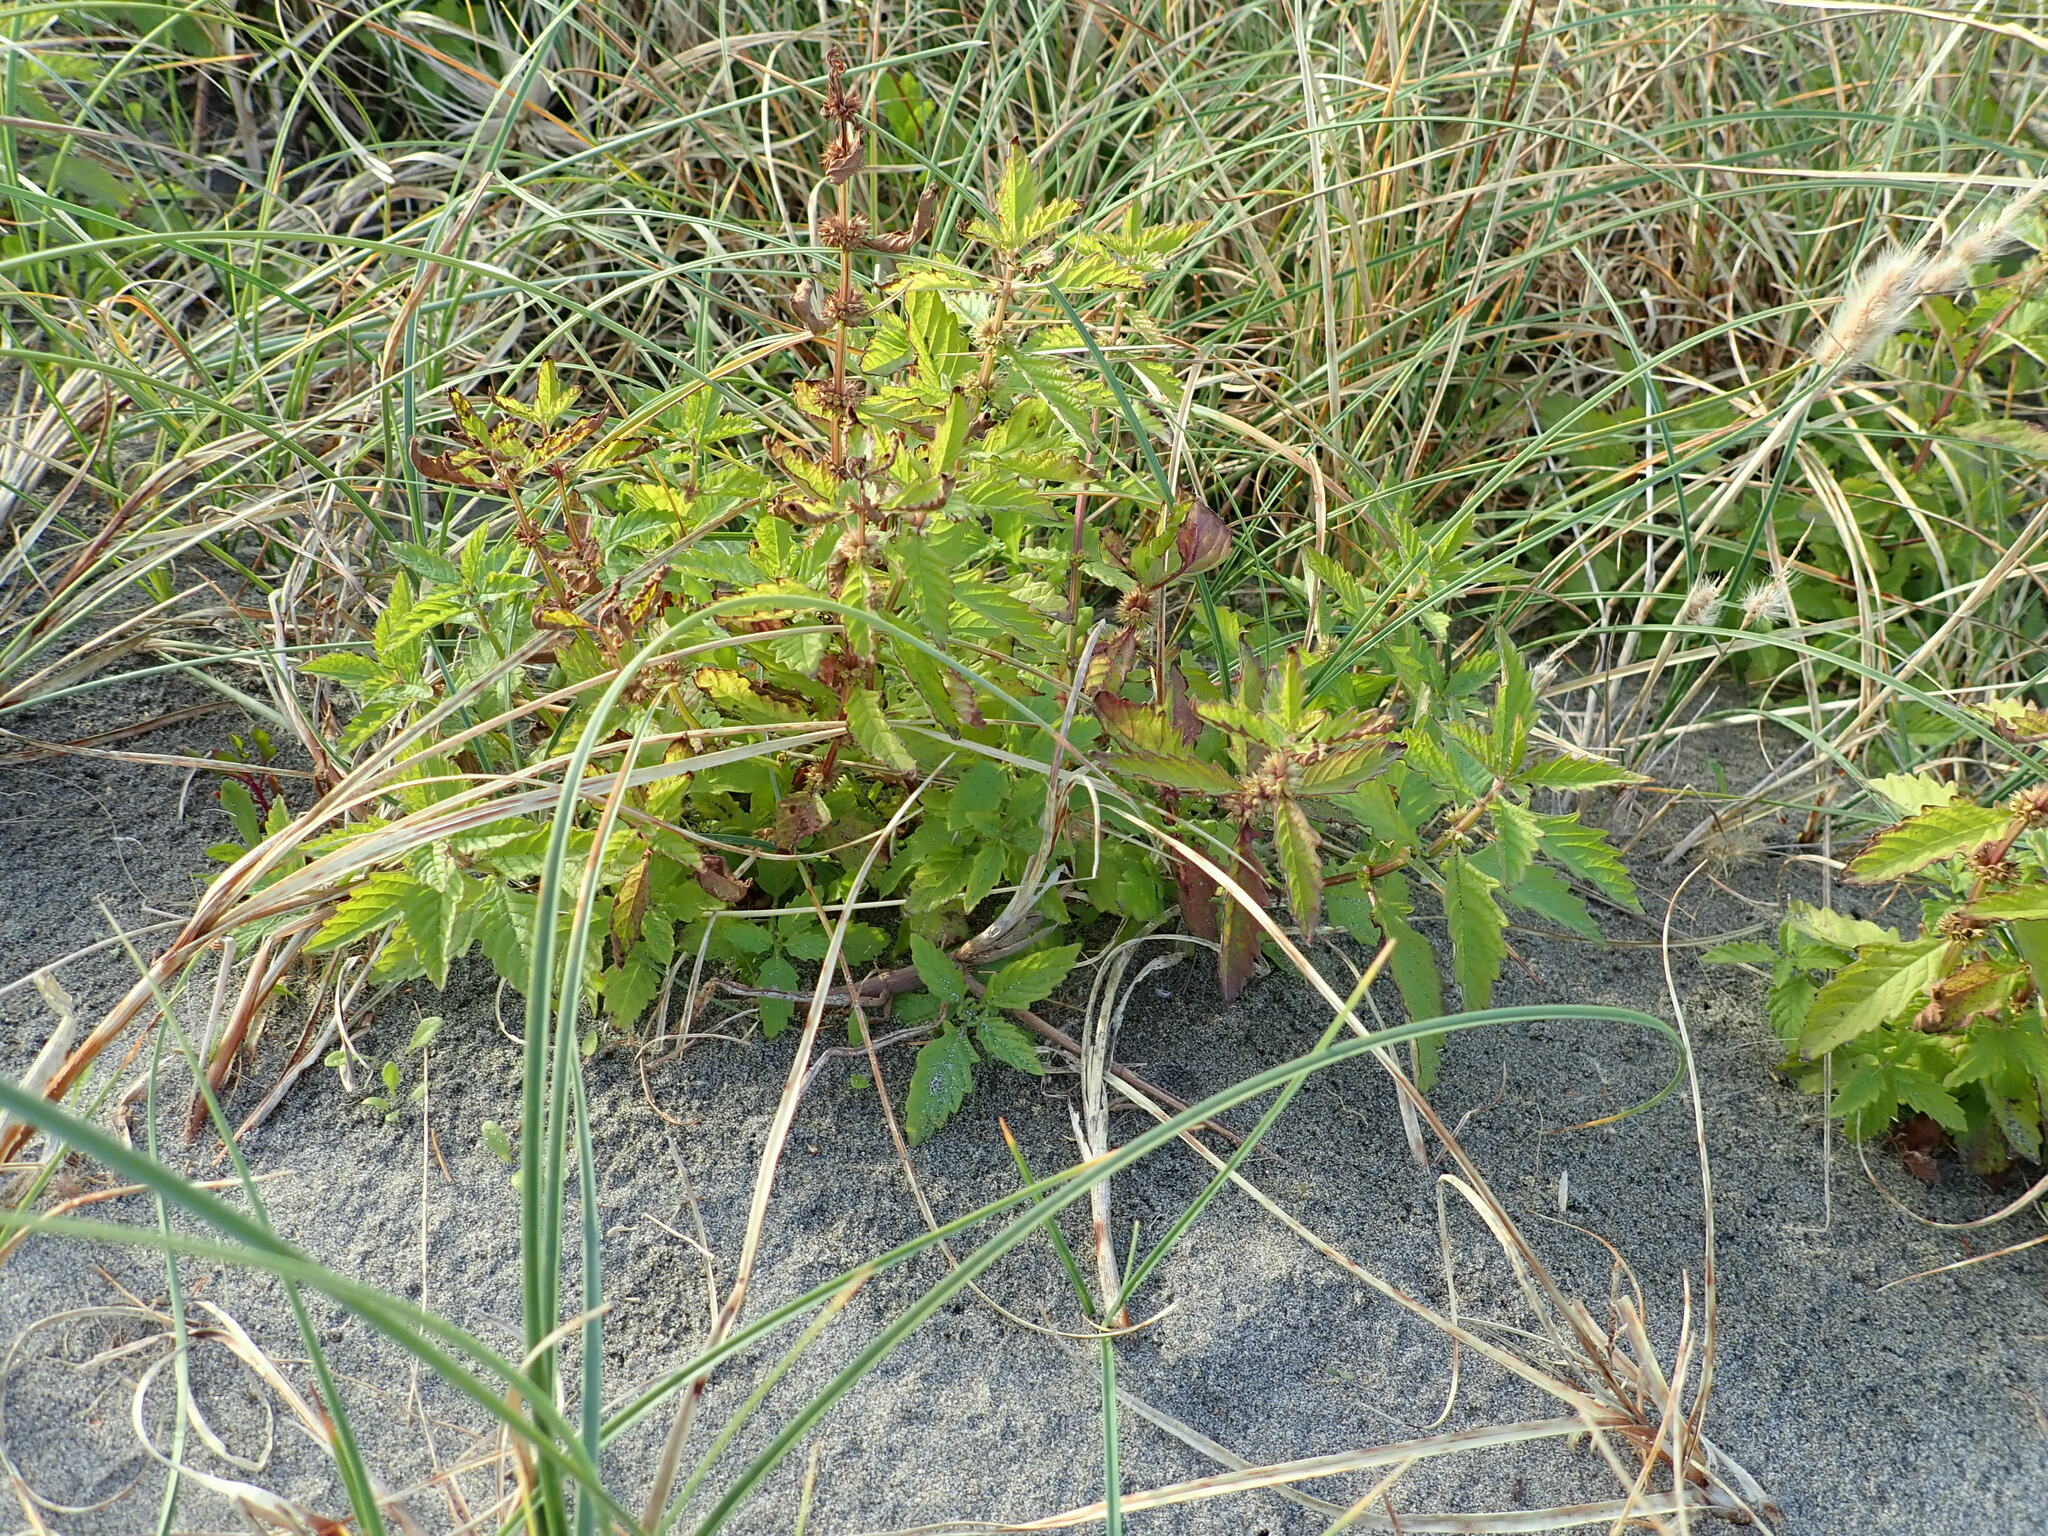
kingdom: Plantae
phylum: Tracheophyta
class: Magnoliopsida
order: Lamiales
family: Lamiaceae
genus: Lycopus
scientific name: Lycopus europaeus
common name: European bugleweed
